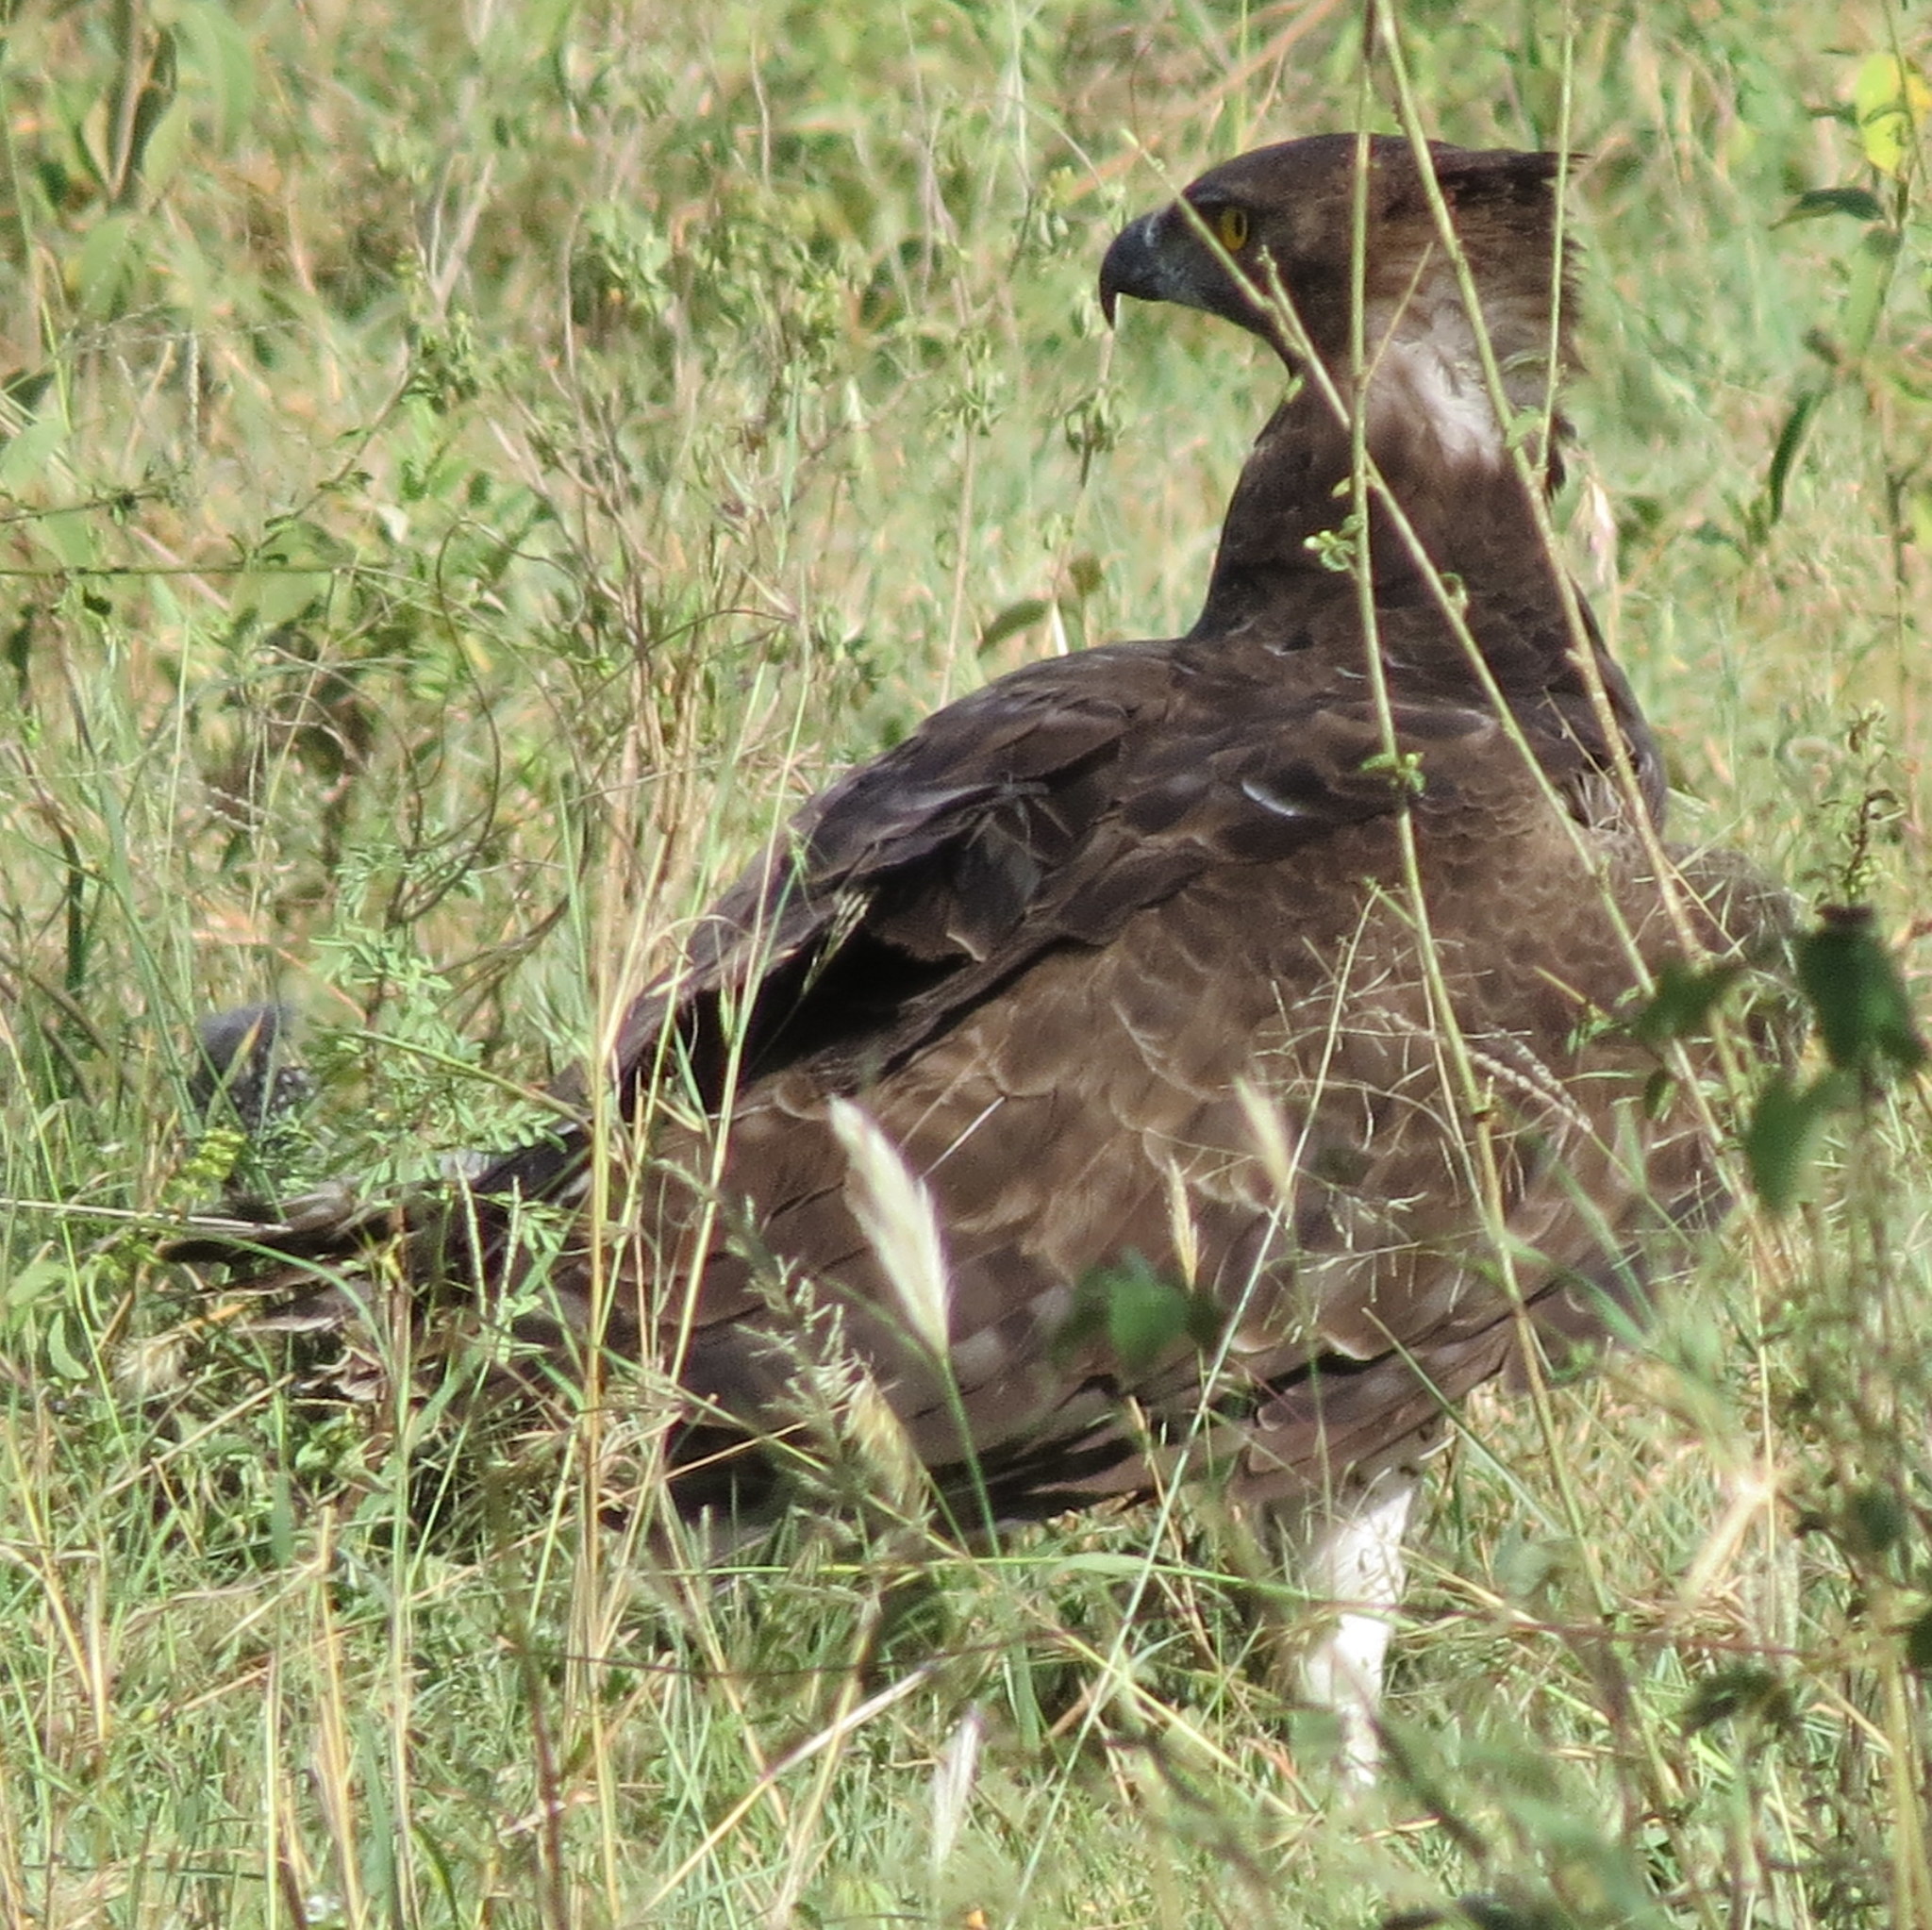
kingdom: Animalia
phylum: Chordata
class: Aves
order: Accipitriformes
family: Accipitridae
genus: Polemaetus
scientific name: Polemaetus bellicosus
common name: Martial eagle
